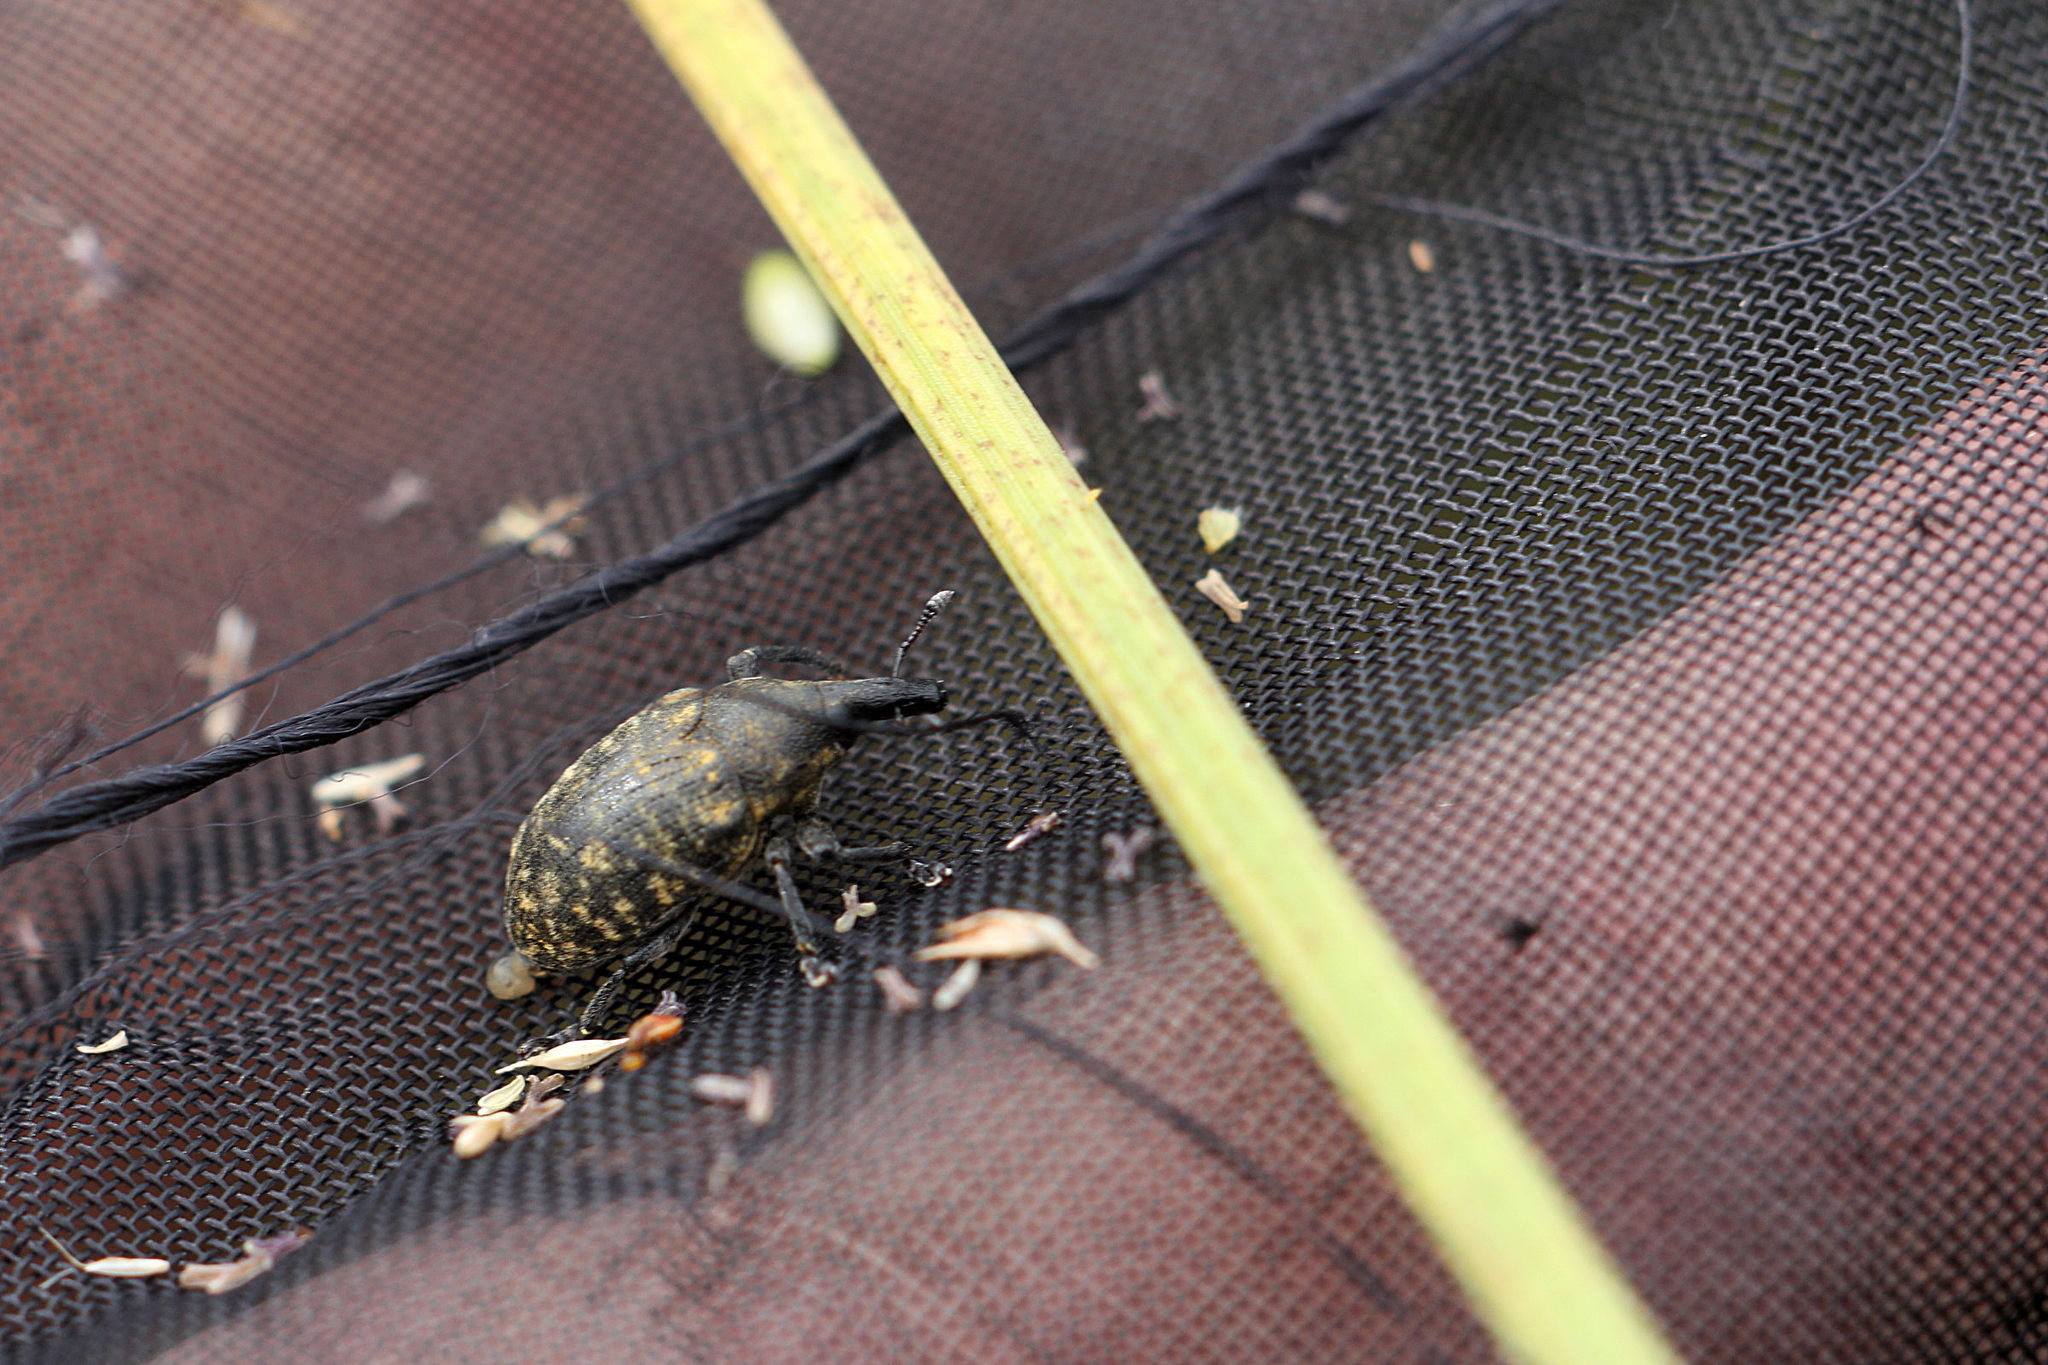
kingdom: Animalia
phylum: Arthropoda
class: Insecta
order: Coleoptera
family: Curculionidae
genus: Larinus
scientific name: Larinus turbinatus
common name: Weevil
